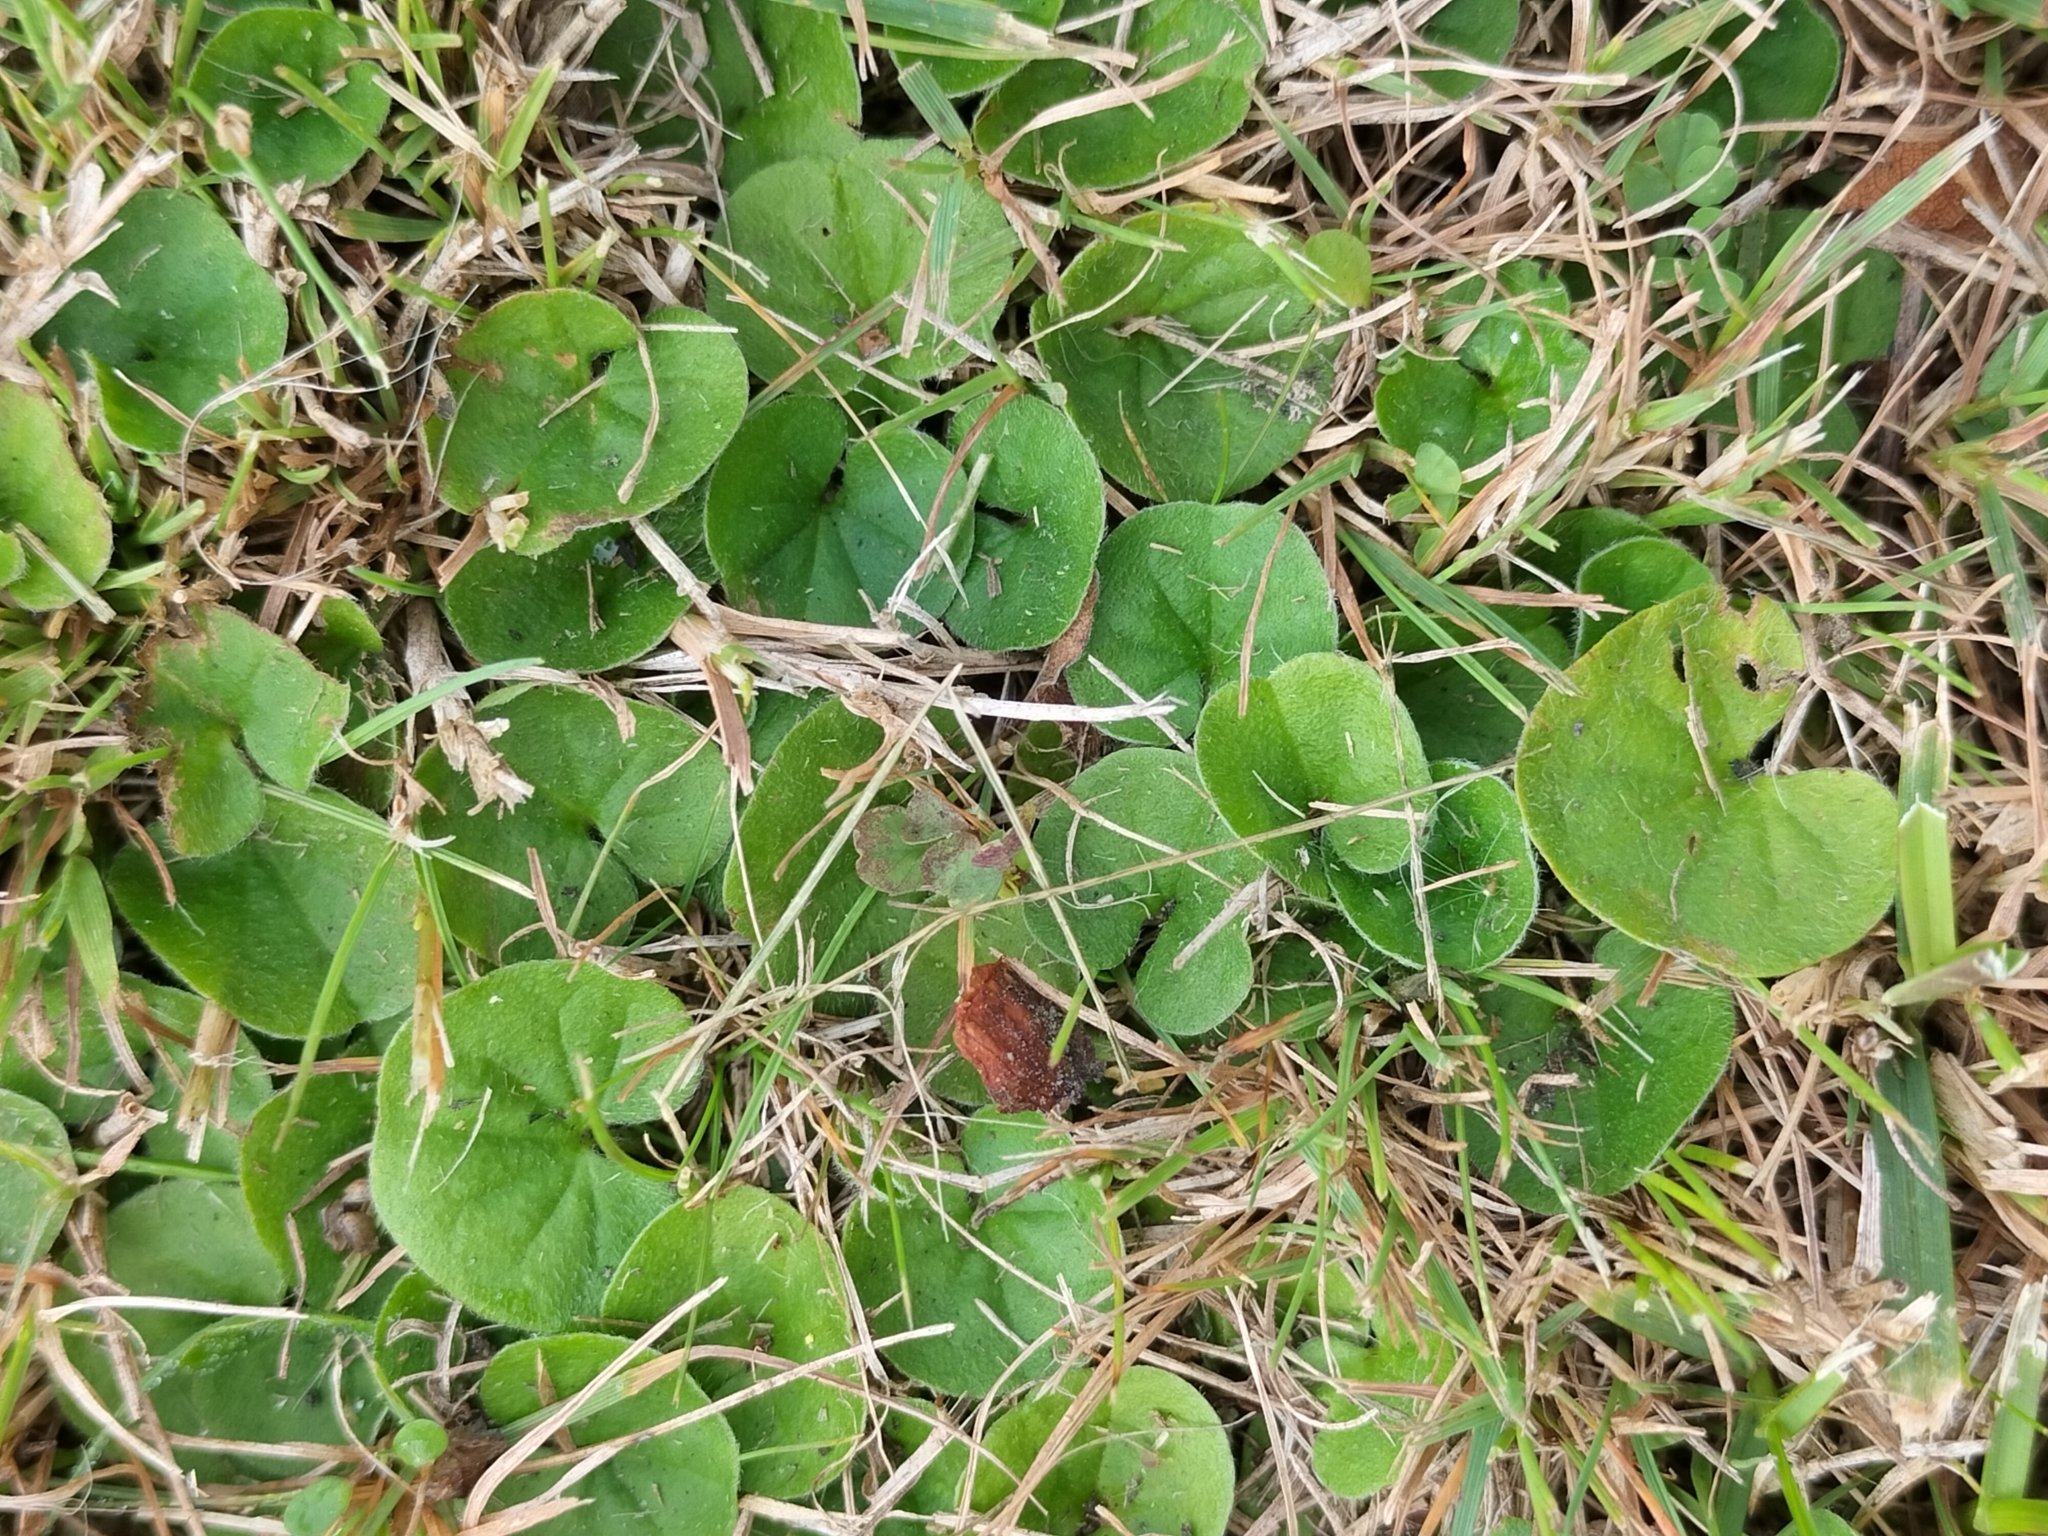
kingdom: Plantae
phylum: Tracheophyta
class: Magnoliopsida
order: Solanales
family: Convolvulaceae
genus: Dichondra
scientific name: Dichondra repens
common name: Kidneyweed
